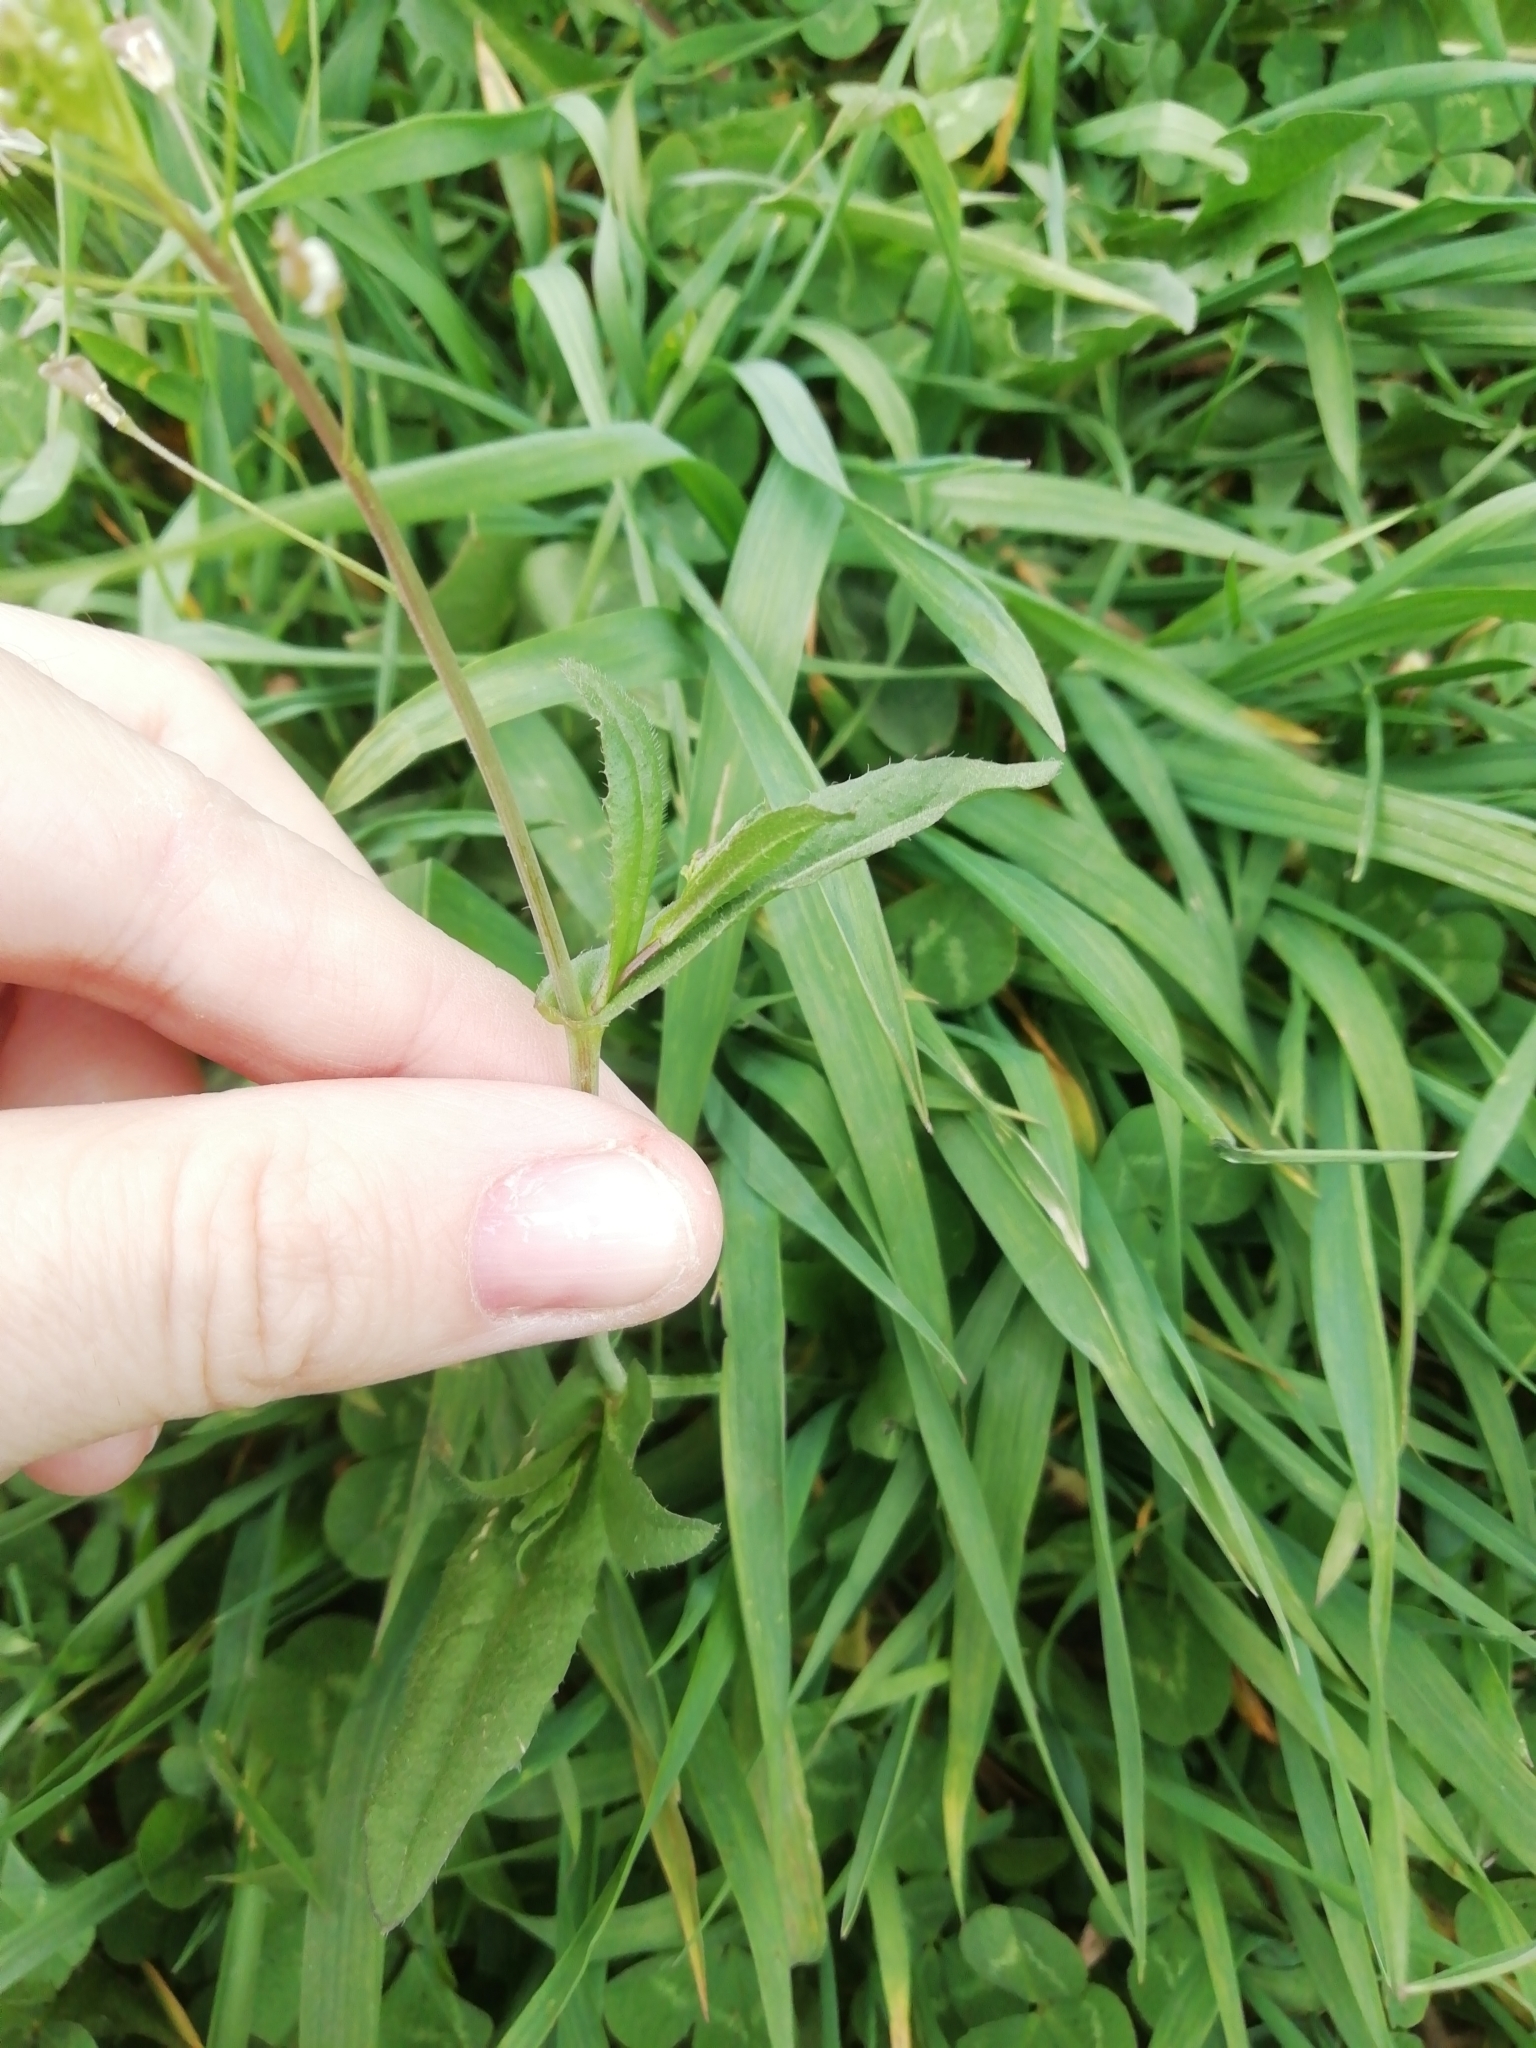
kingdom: Plantae
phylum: Tracheophyta
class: Magnoliopsida
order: Brassicales
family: Brassicaceae
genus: Capsella
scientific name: Capsella bursa-pastoris
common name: Shepherd's purse
